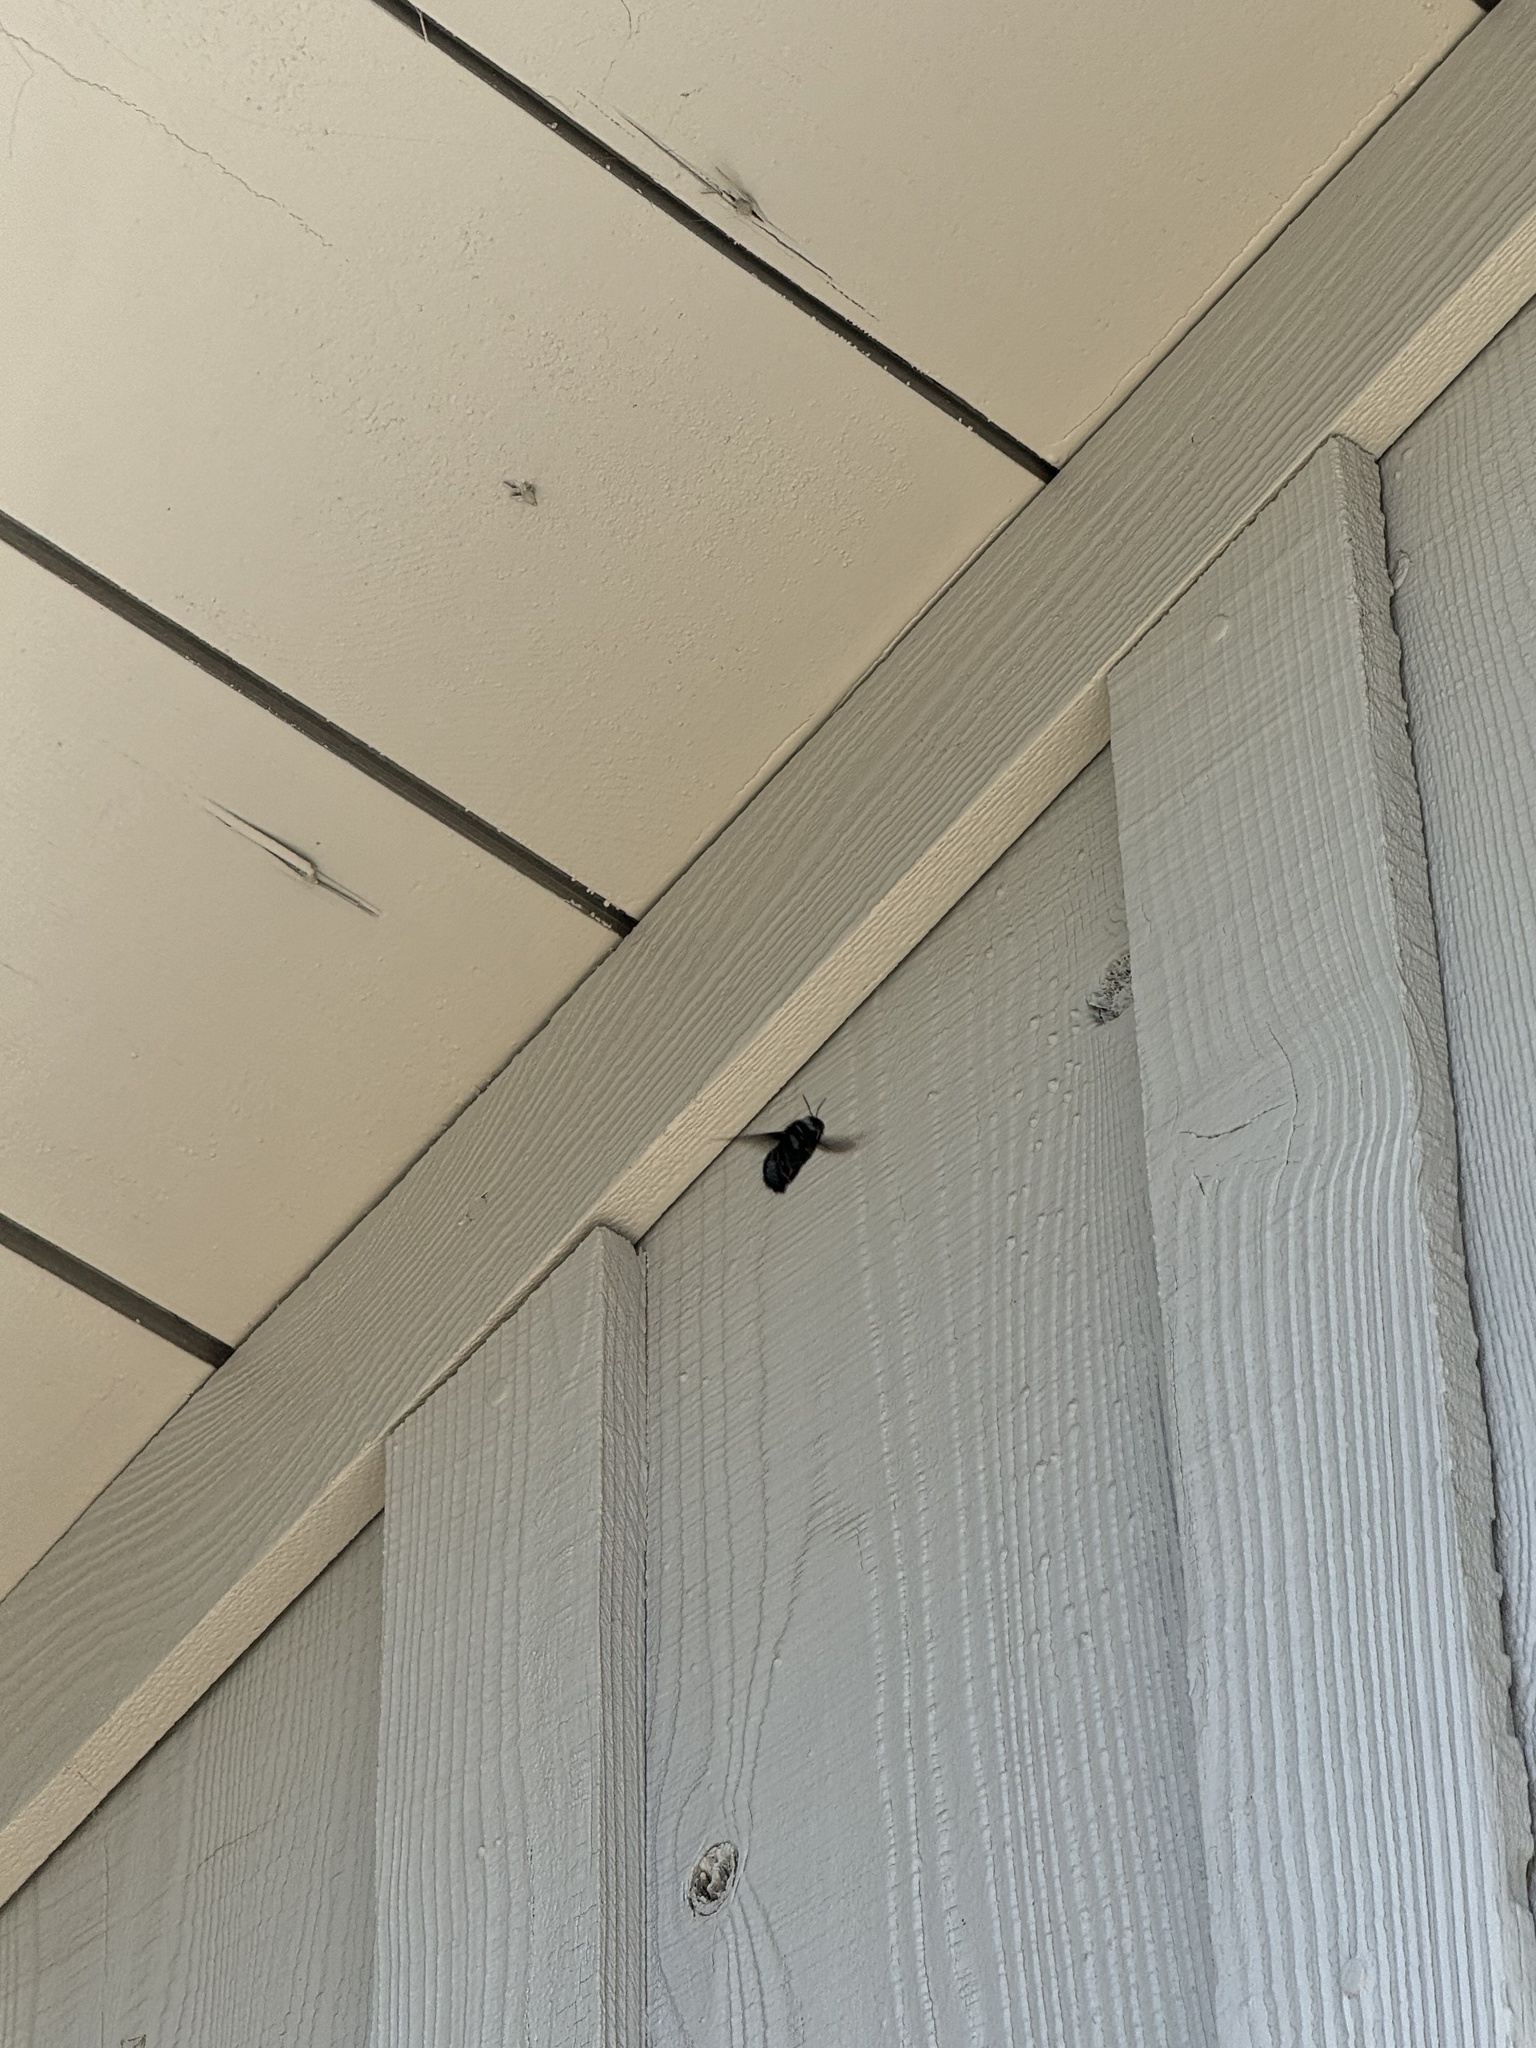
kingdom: Animalia
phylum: Arthropoda
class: Insecta
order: Hymenoptera
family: Apidae
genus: Xylocopa
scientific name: Xylocopa californica
